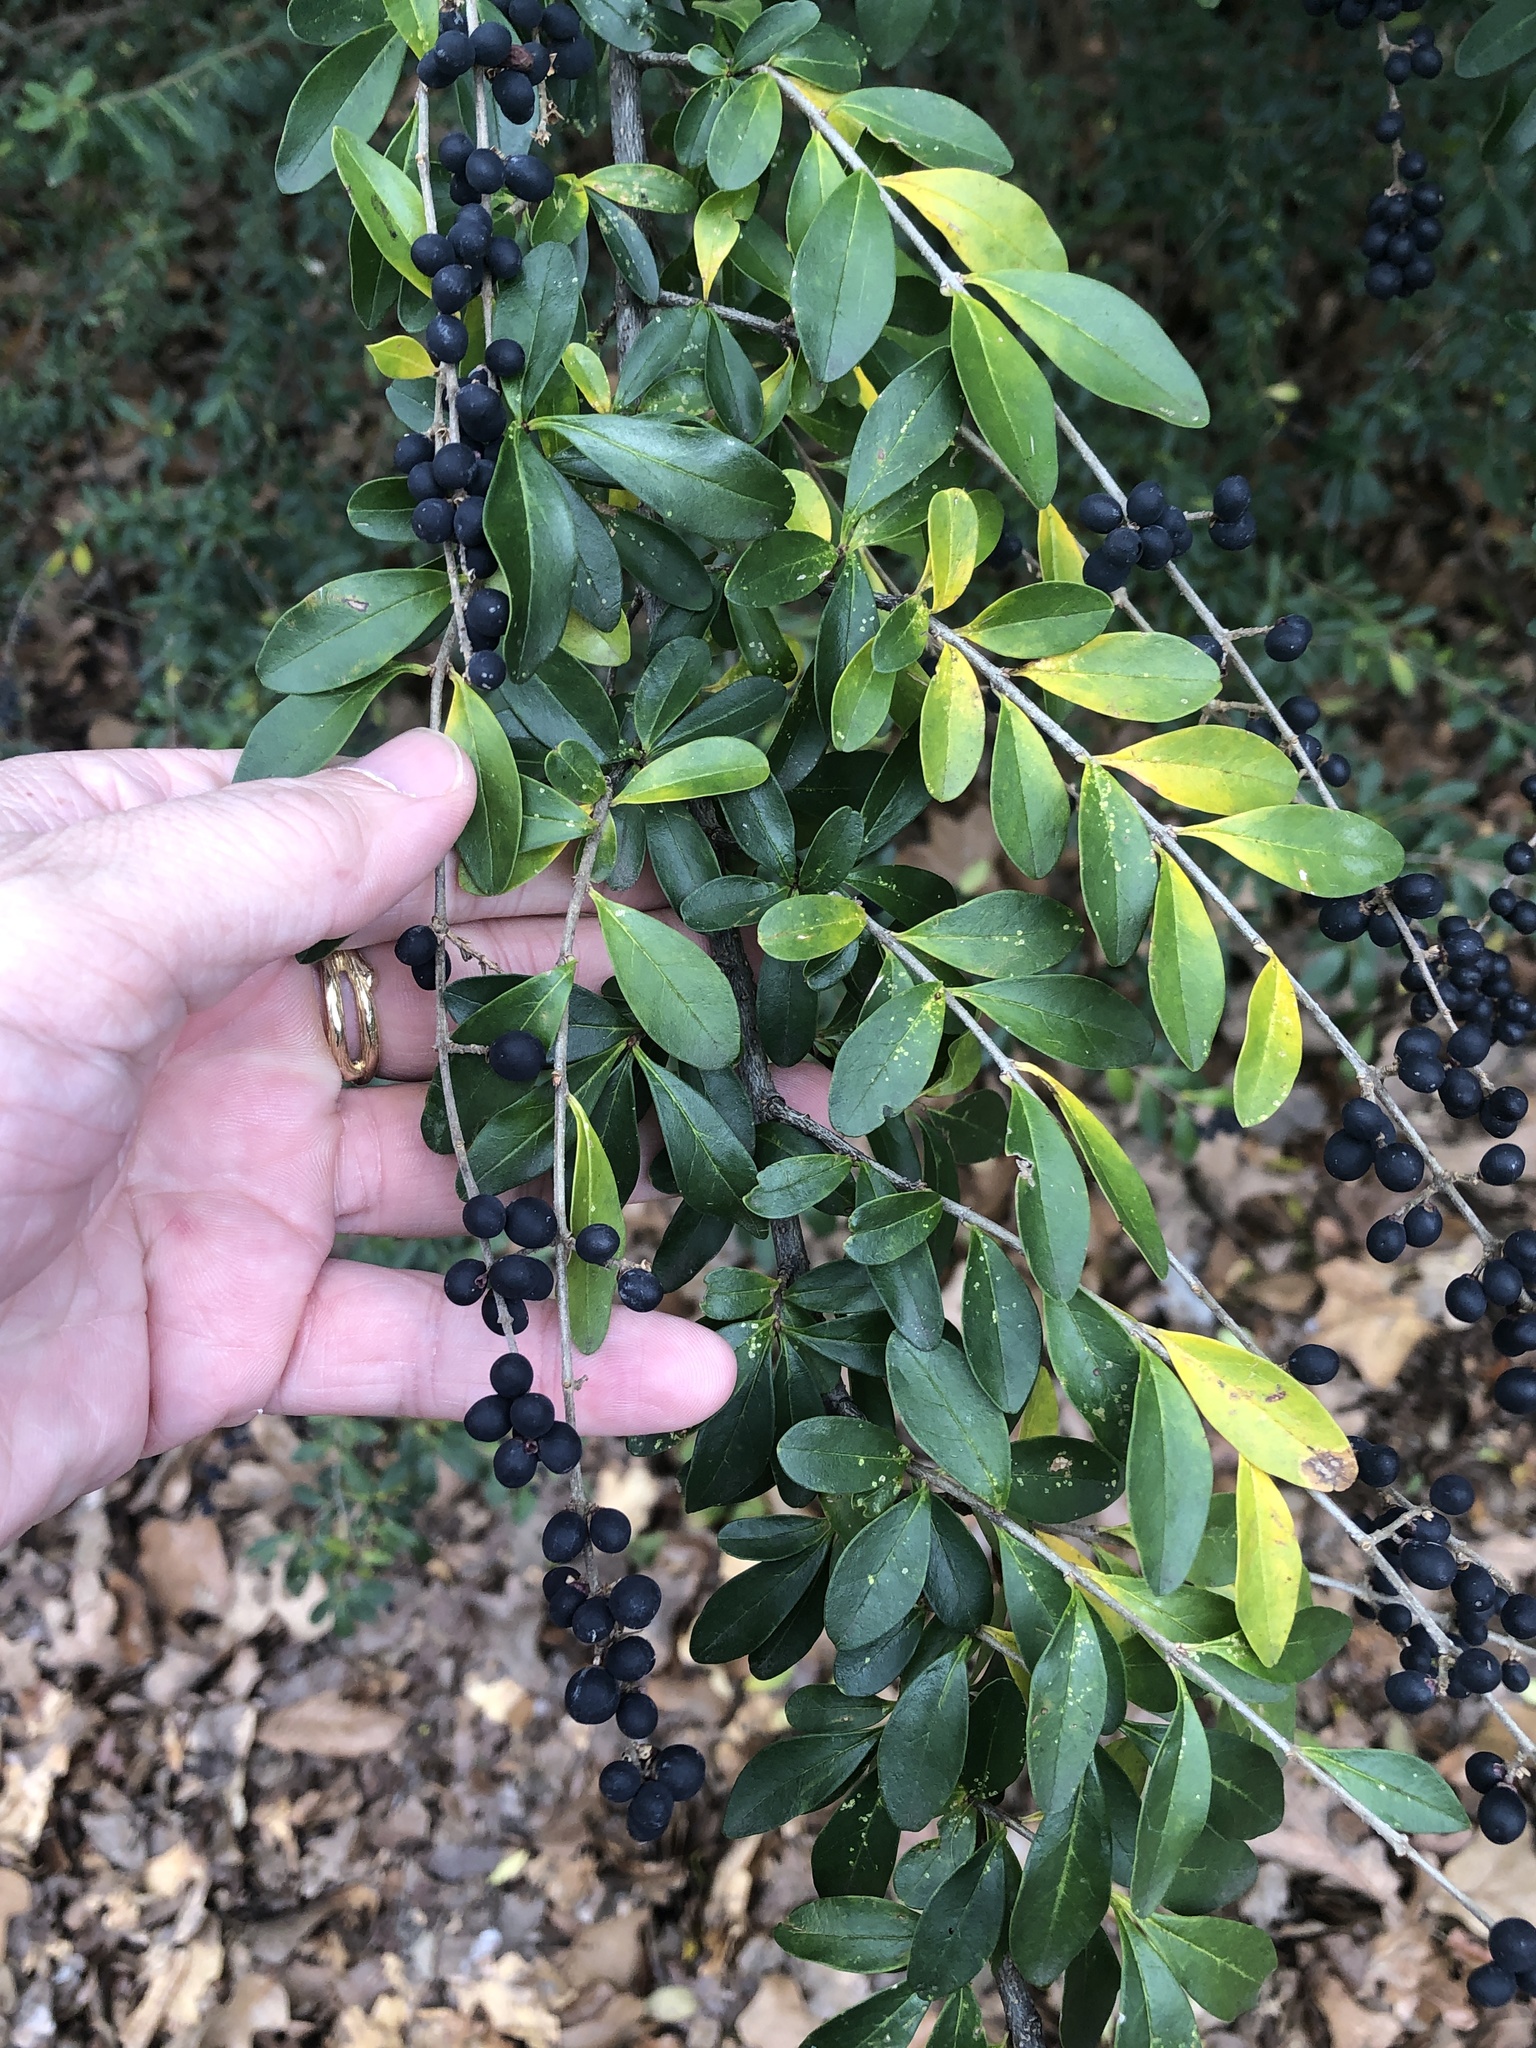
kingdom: Plantae
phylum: Tracheophyta
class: Magnoliopsida
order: Lamiales
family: Oleaceae
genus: Ligustrum
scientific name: Ligustrum quihoui
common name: Waxyleaf privet
